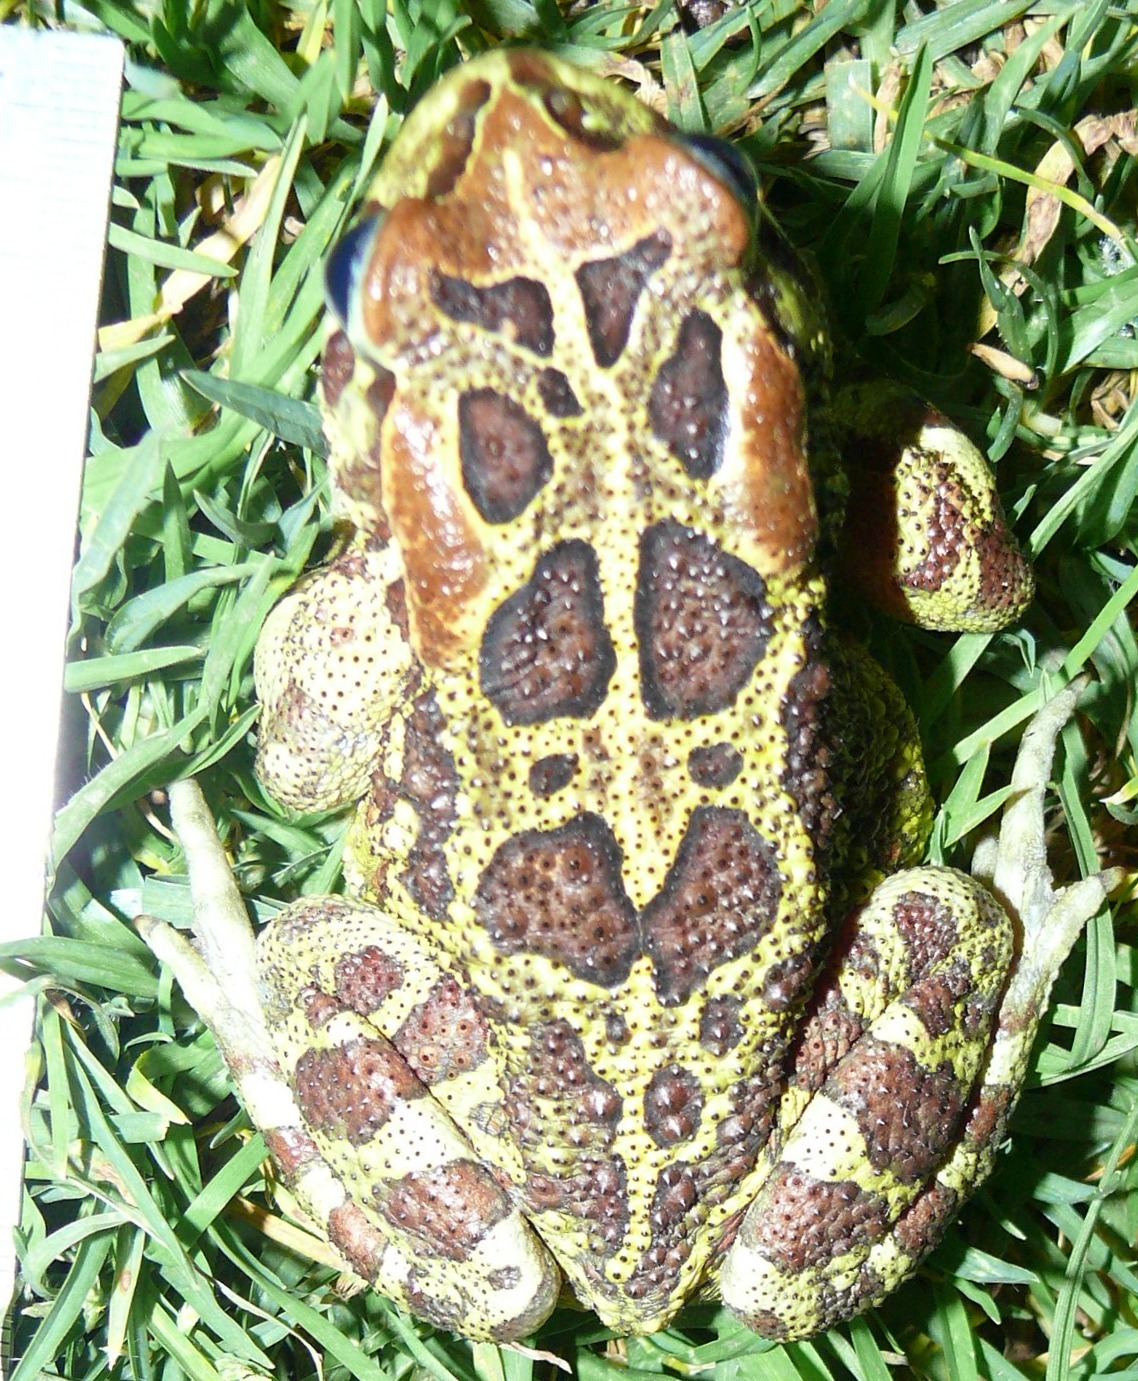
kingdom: Animalia
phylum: Chordata
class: Amphibia
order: Anura
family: Bufonidae
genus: Sclerophrys
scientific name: Sclerophrys pantherina
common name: Panther toad
